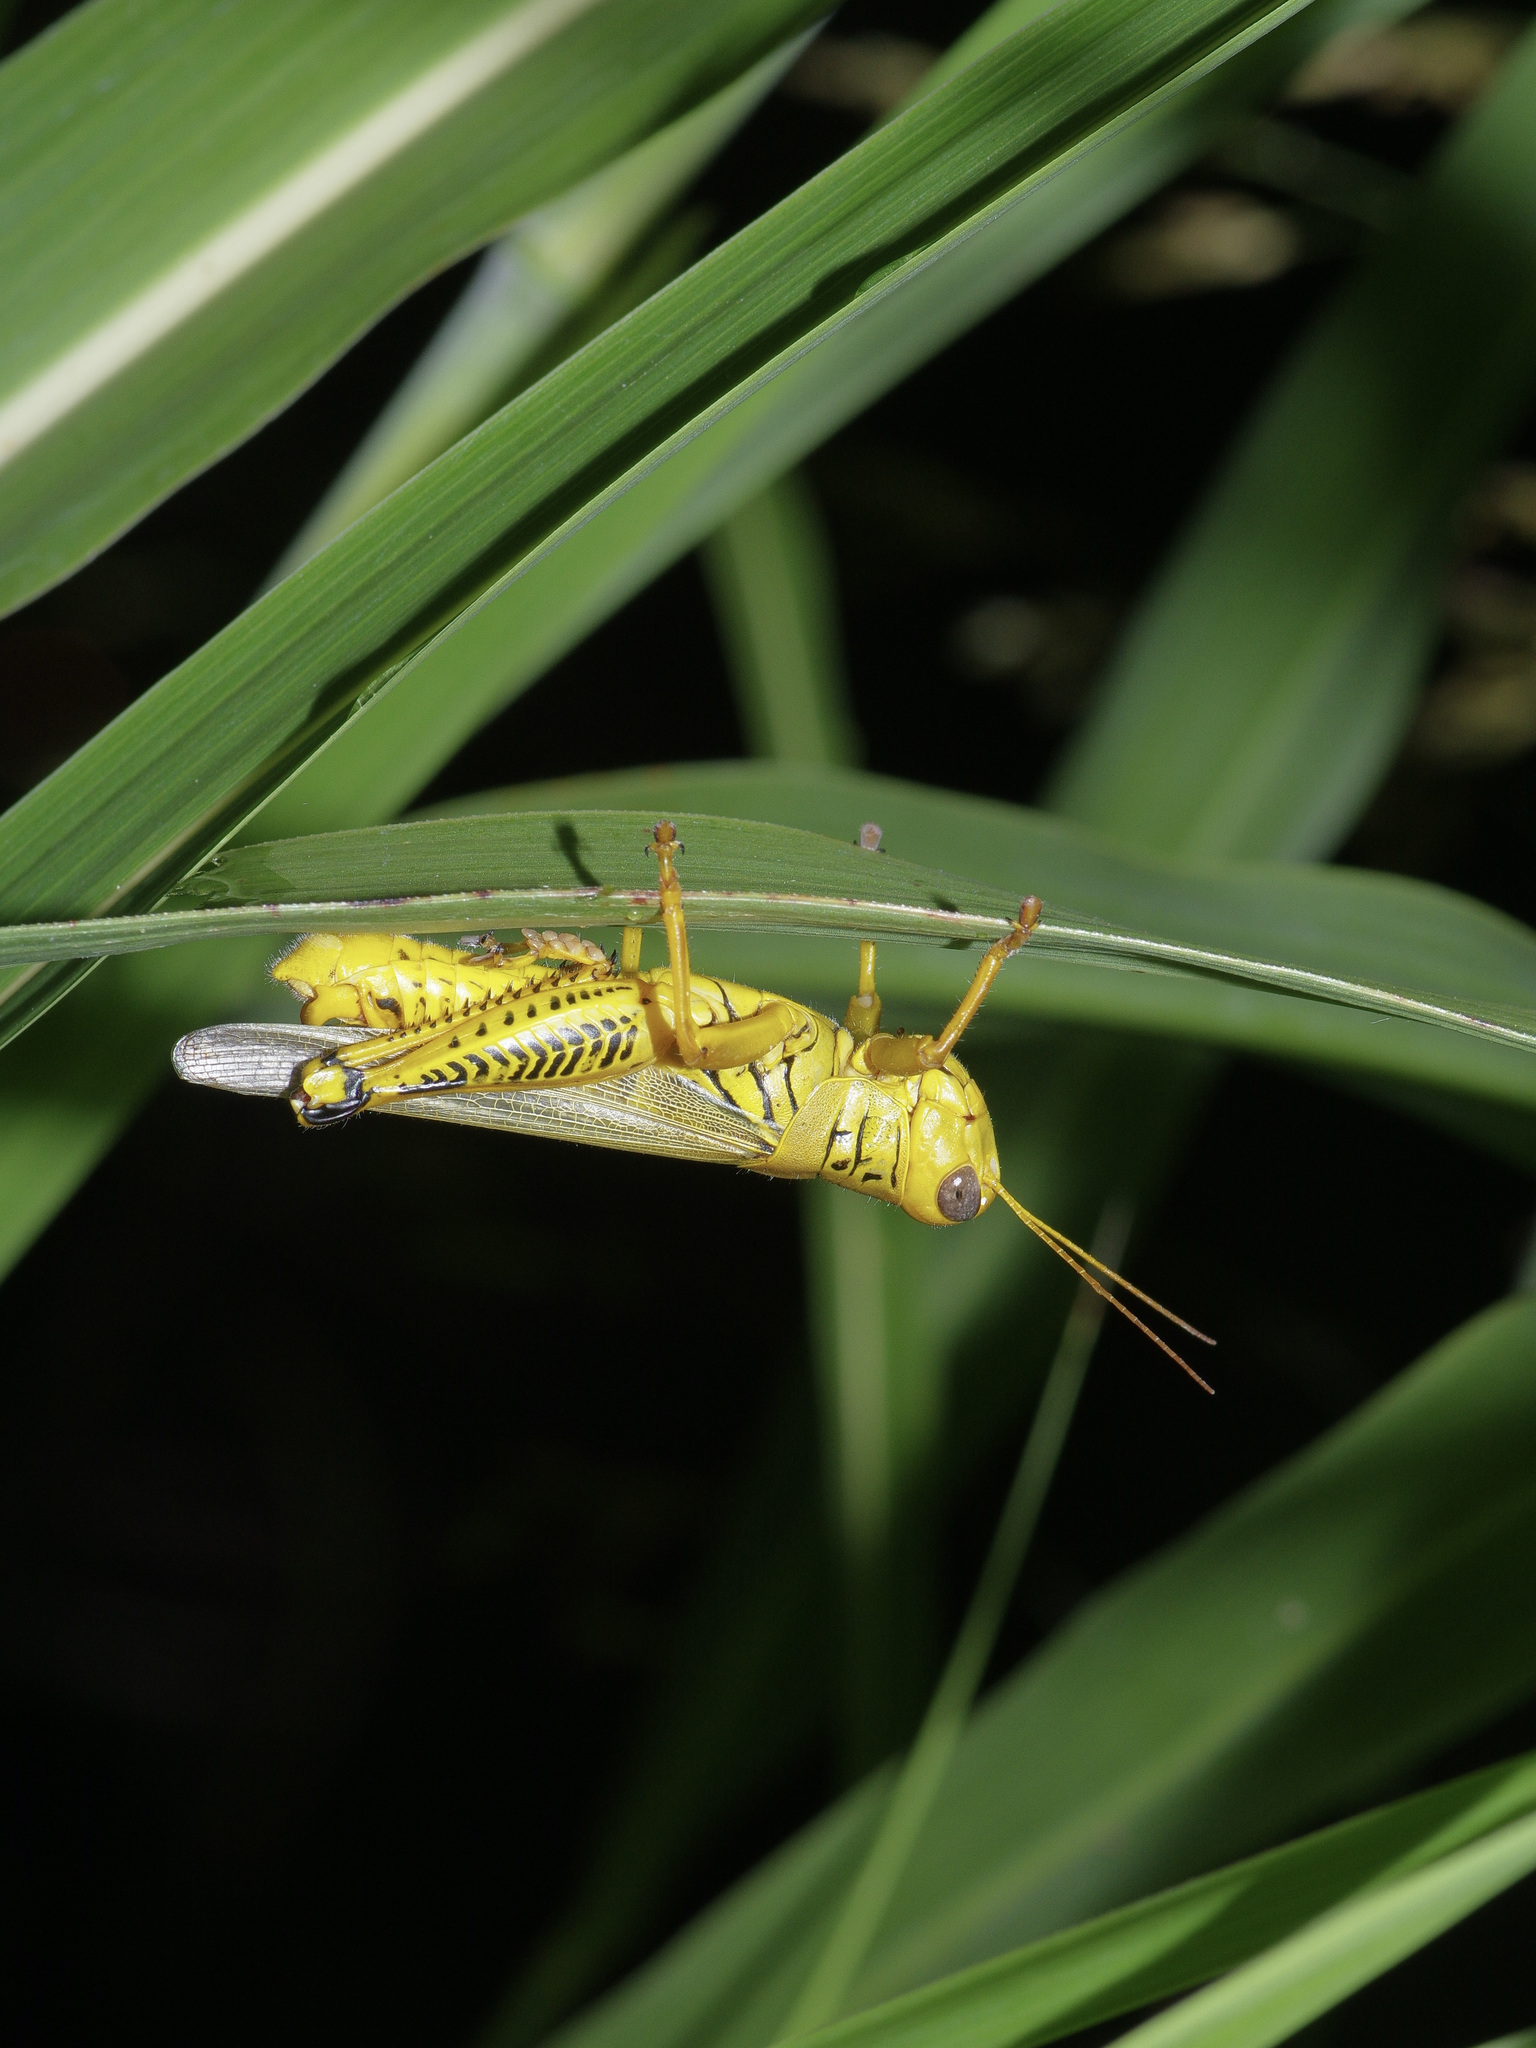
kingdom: Animalia
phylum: Arthropoda
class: Insecta
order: Orthoptera
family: Acrididae
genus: Melanoplus
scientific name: Melanoplus differentialis
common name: Differential grasshopper
